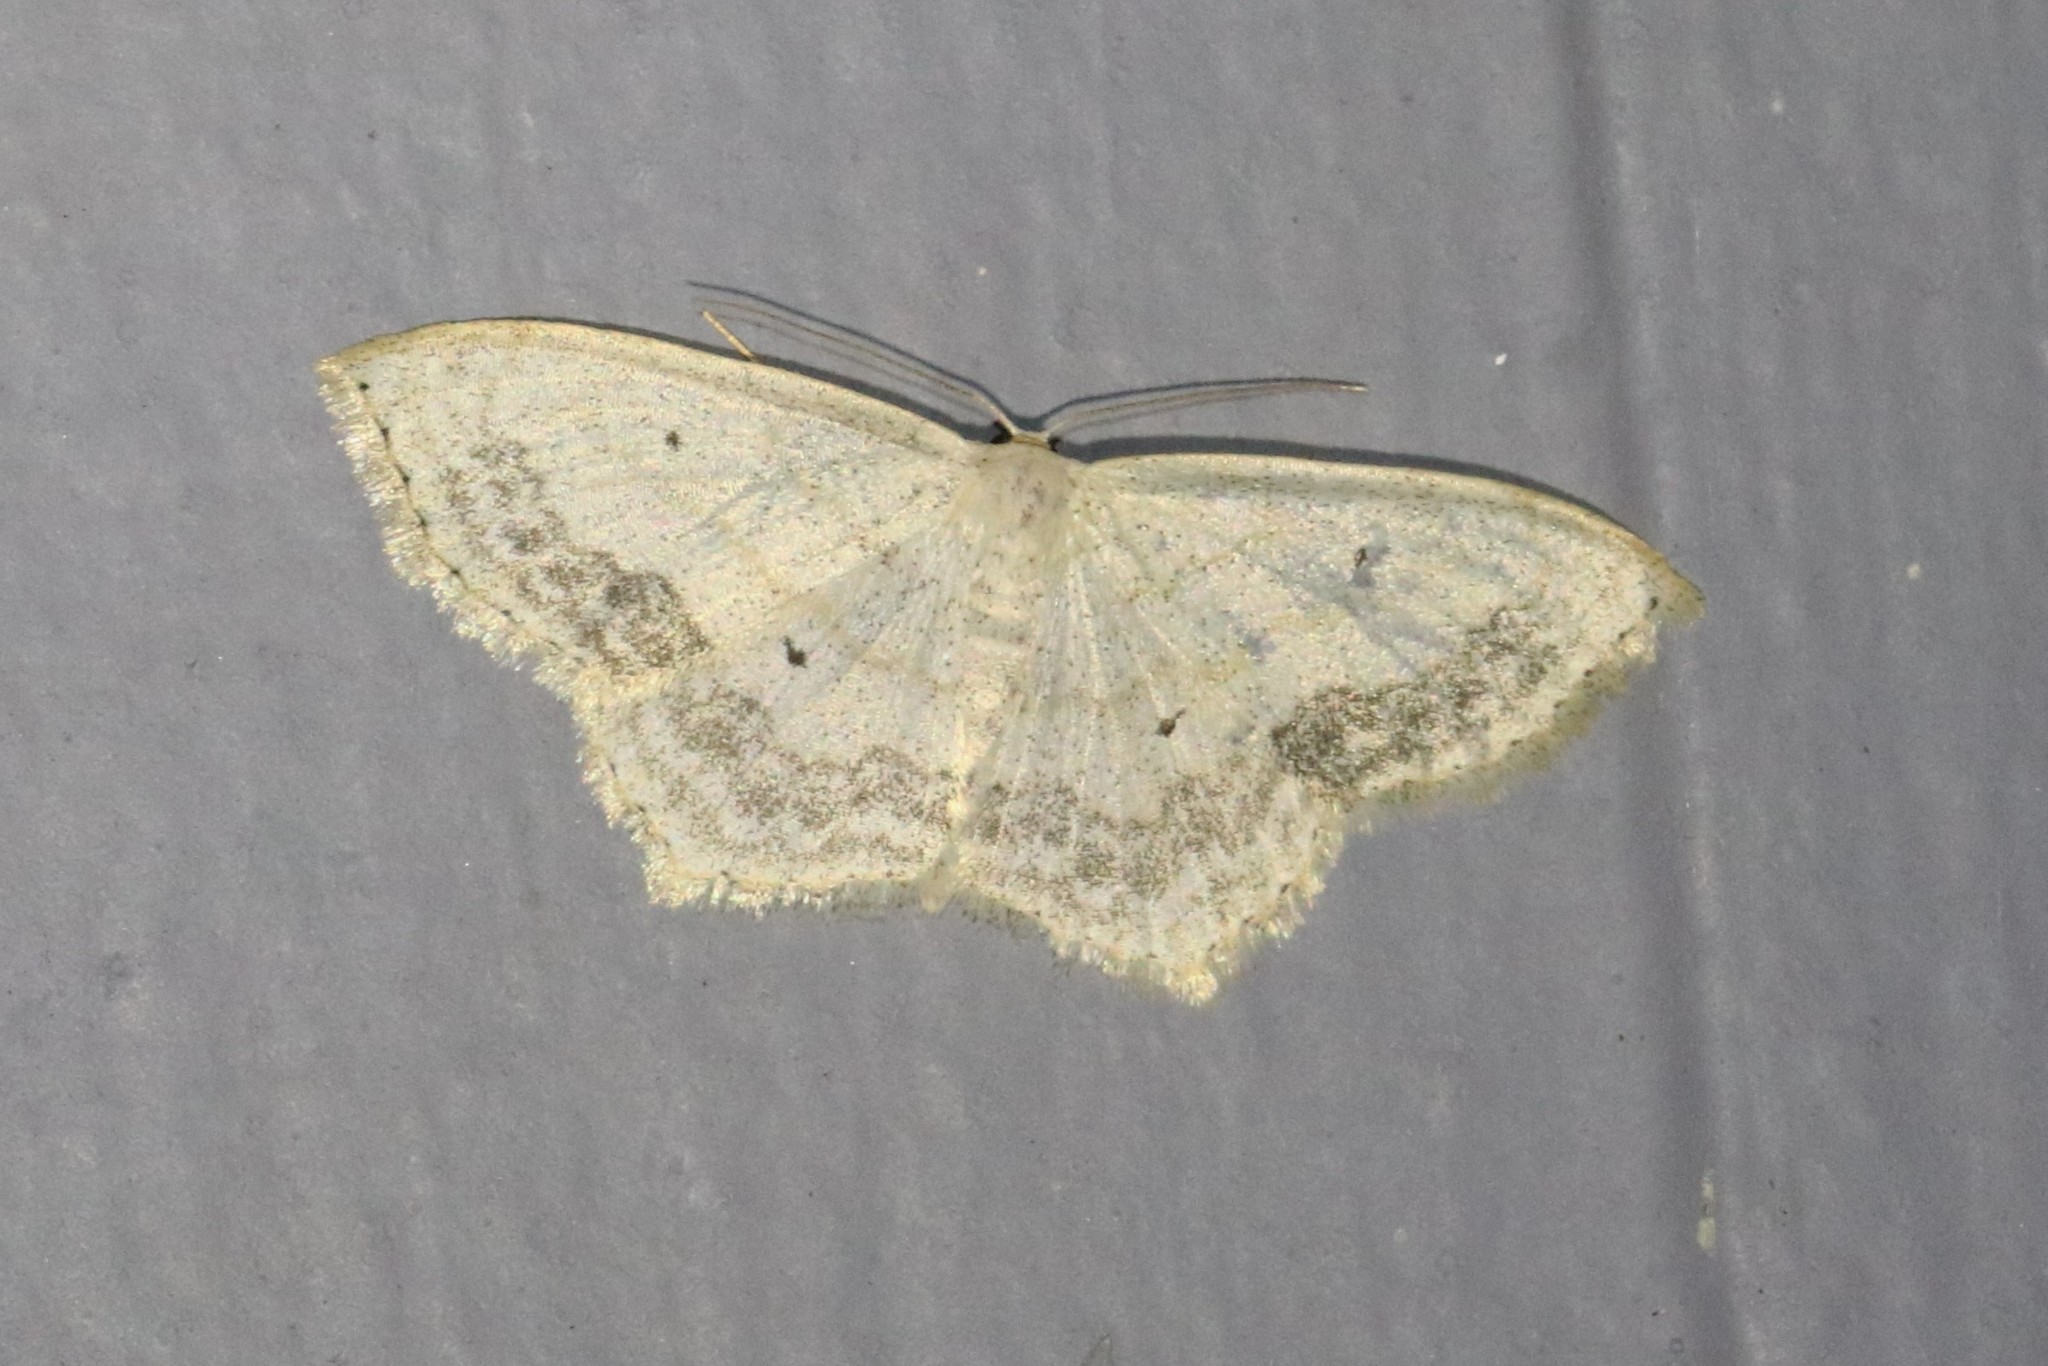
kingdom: Animalia
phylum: Arthropoda
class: Insecta
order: Lepidoptera
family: Geometridae
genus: Scopula
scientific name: Scopula limboundata
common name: Large lace border
